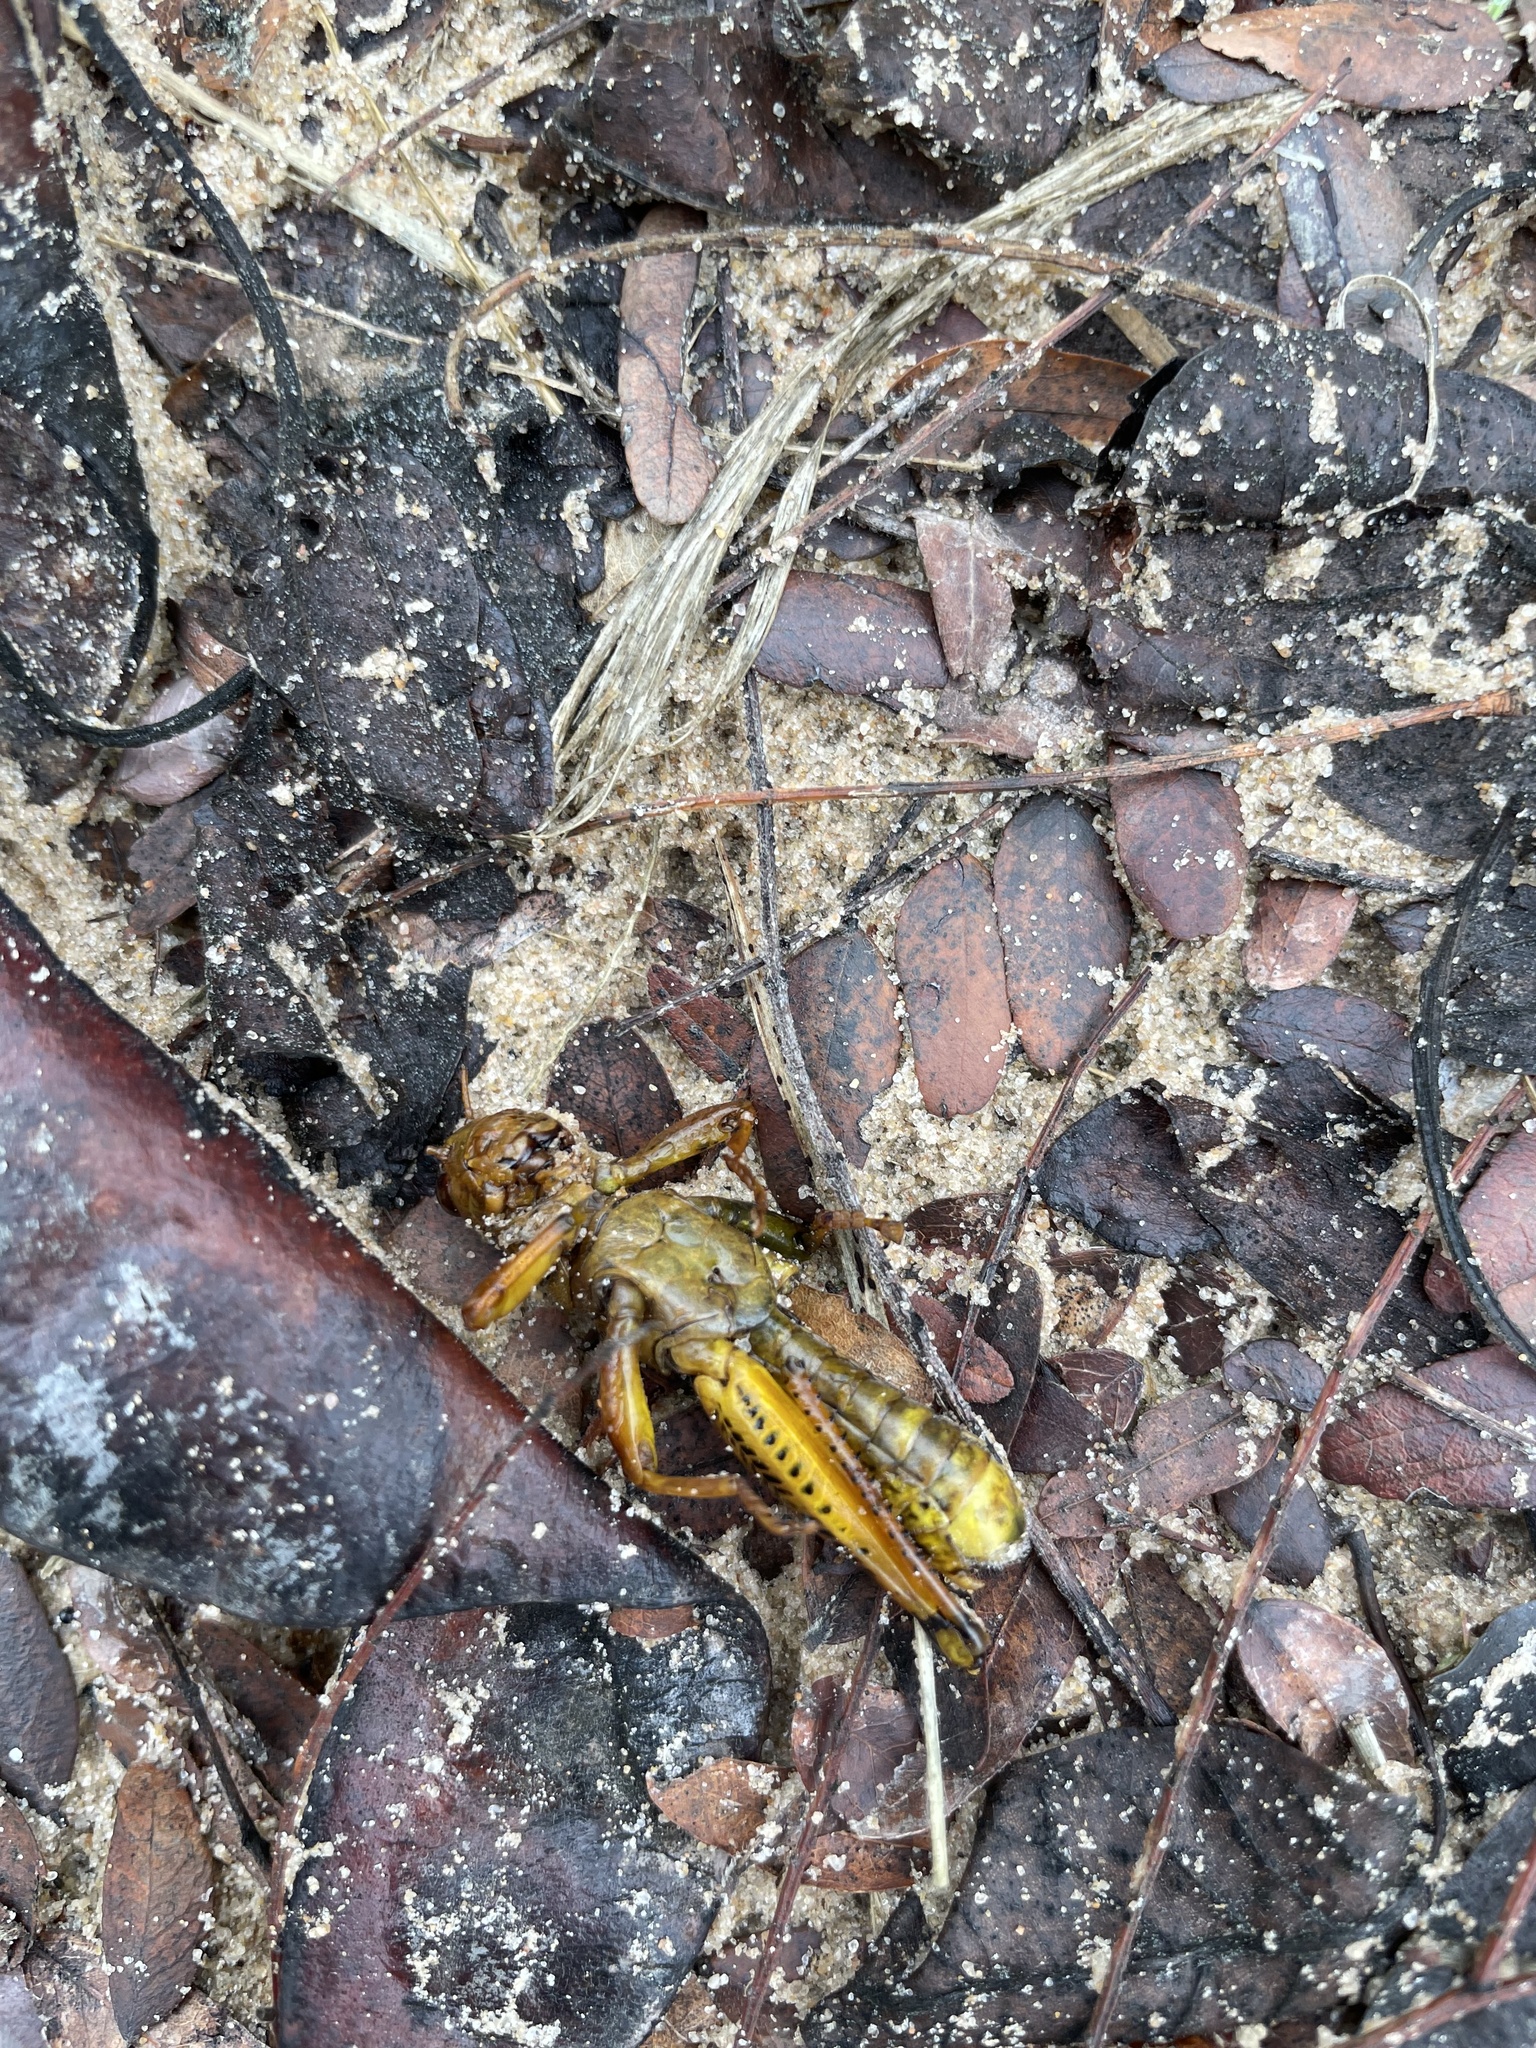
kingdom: Animalia
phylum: Arthropoda
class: Insecta
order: Orthoptera
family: Acrididae
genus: Melanoplus
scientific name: Melanoplus differentialis
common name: Differential grasshopper
